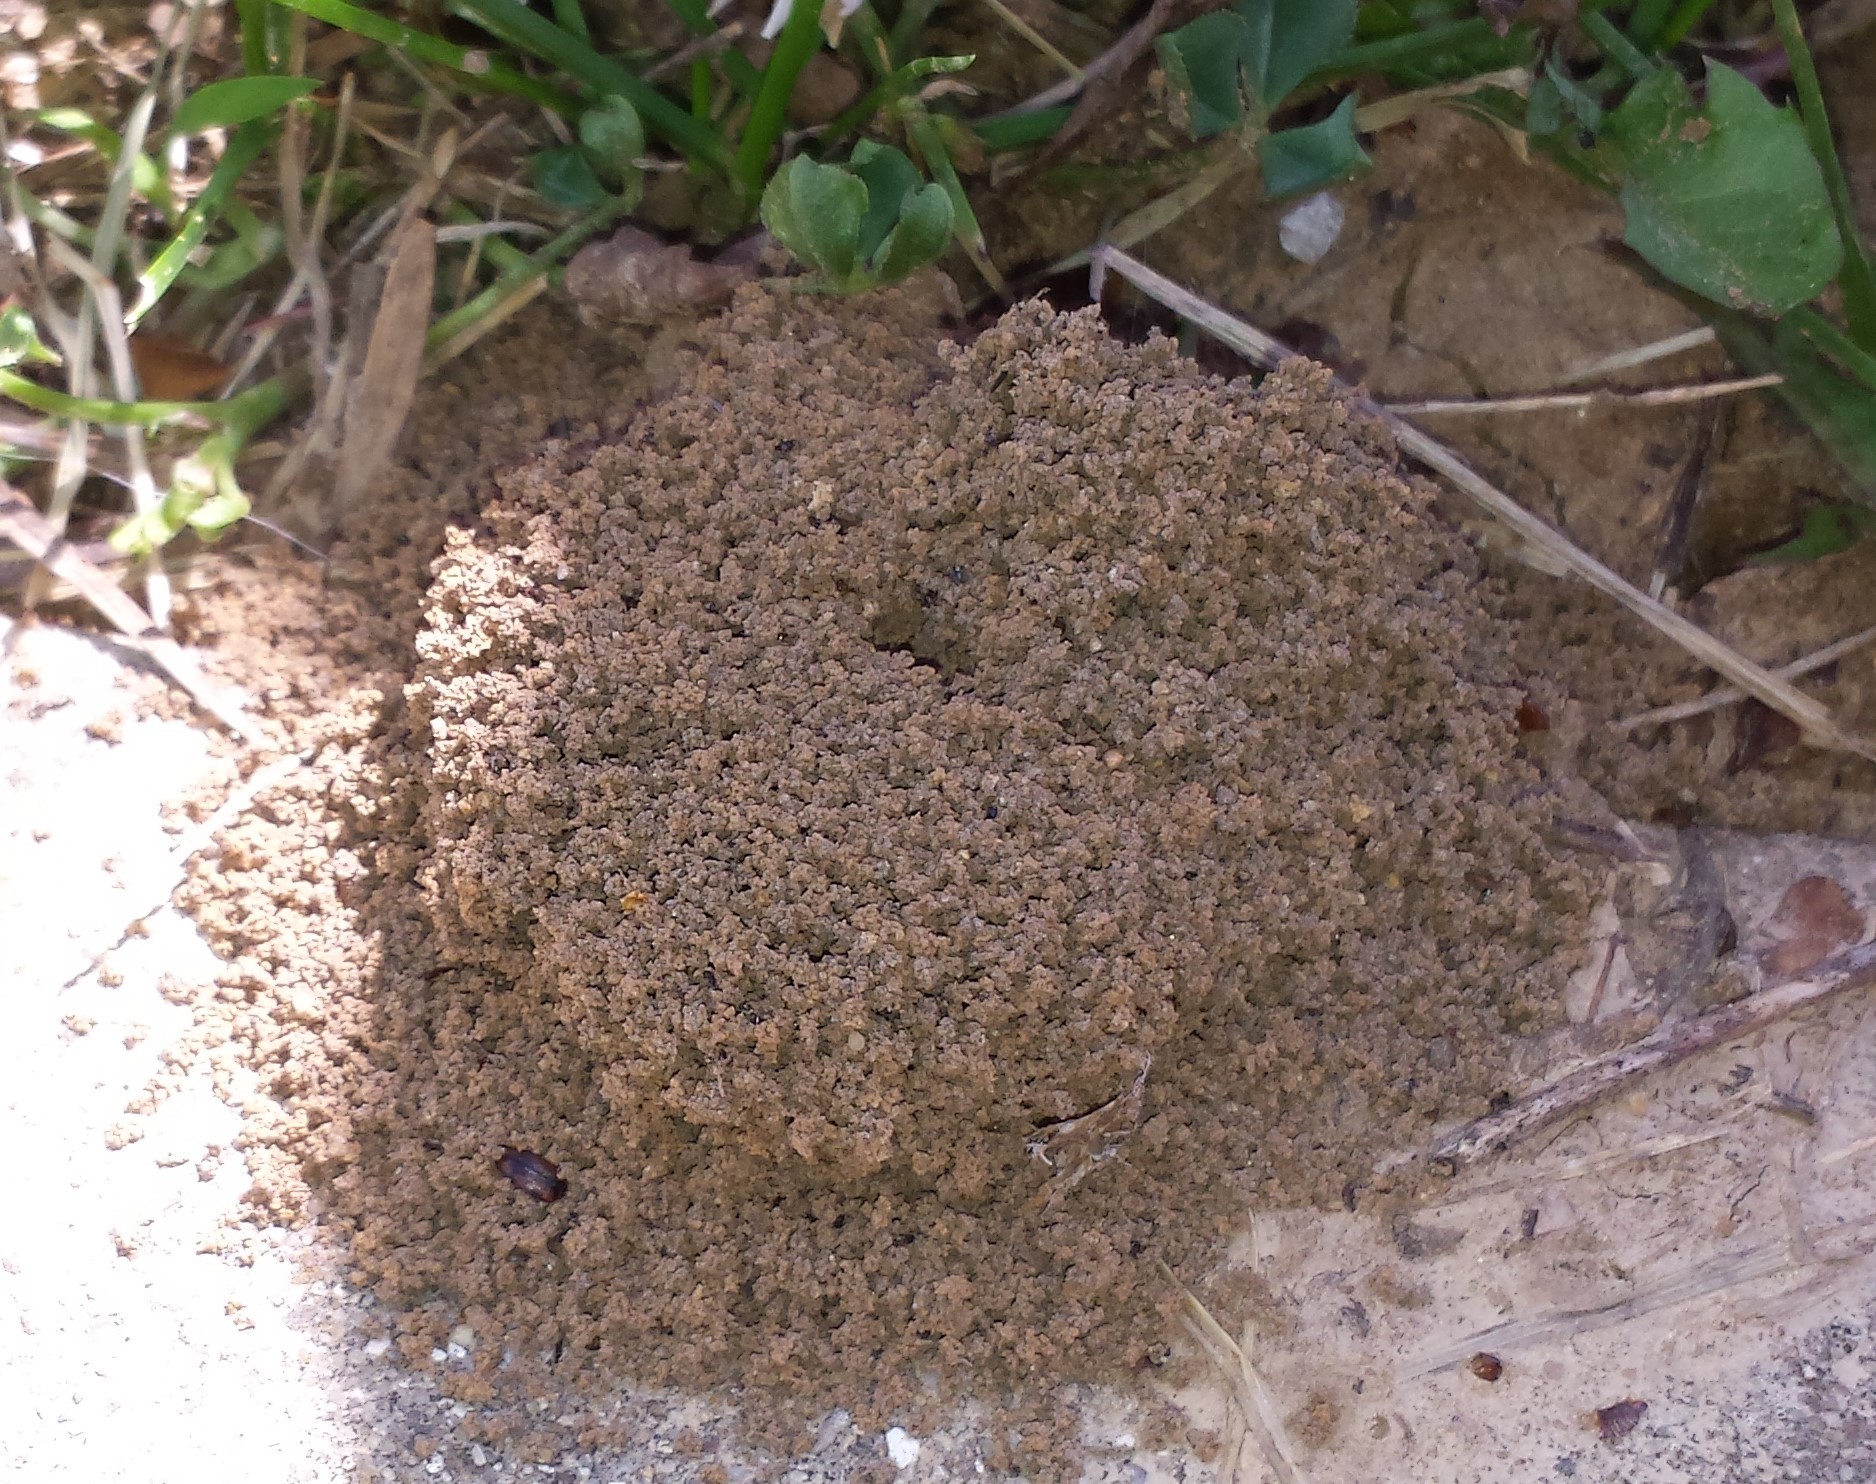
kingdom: Animalia
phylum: Arthropoda
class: Insecta
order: Hymenoptera
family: Formicidae
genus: Lasius
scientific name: Lasius neoniger
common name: Turfgrass ant
